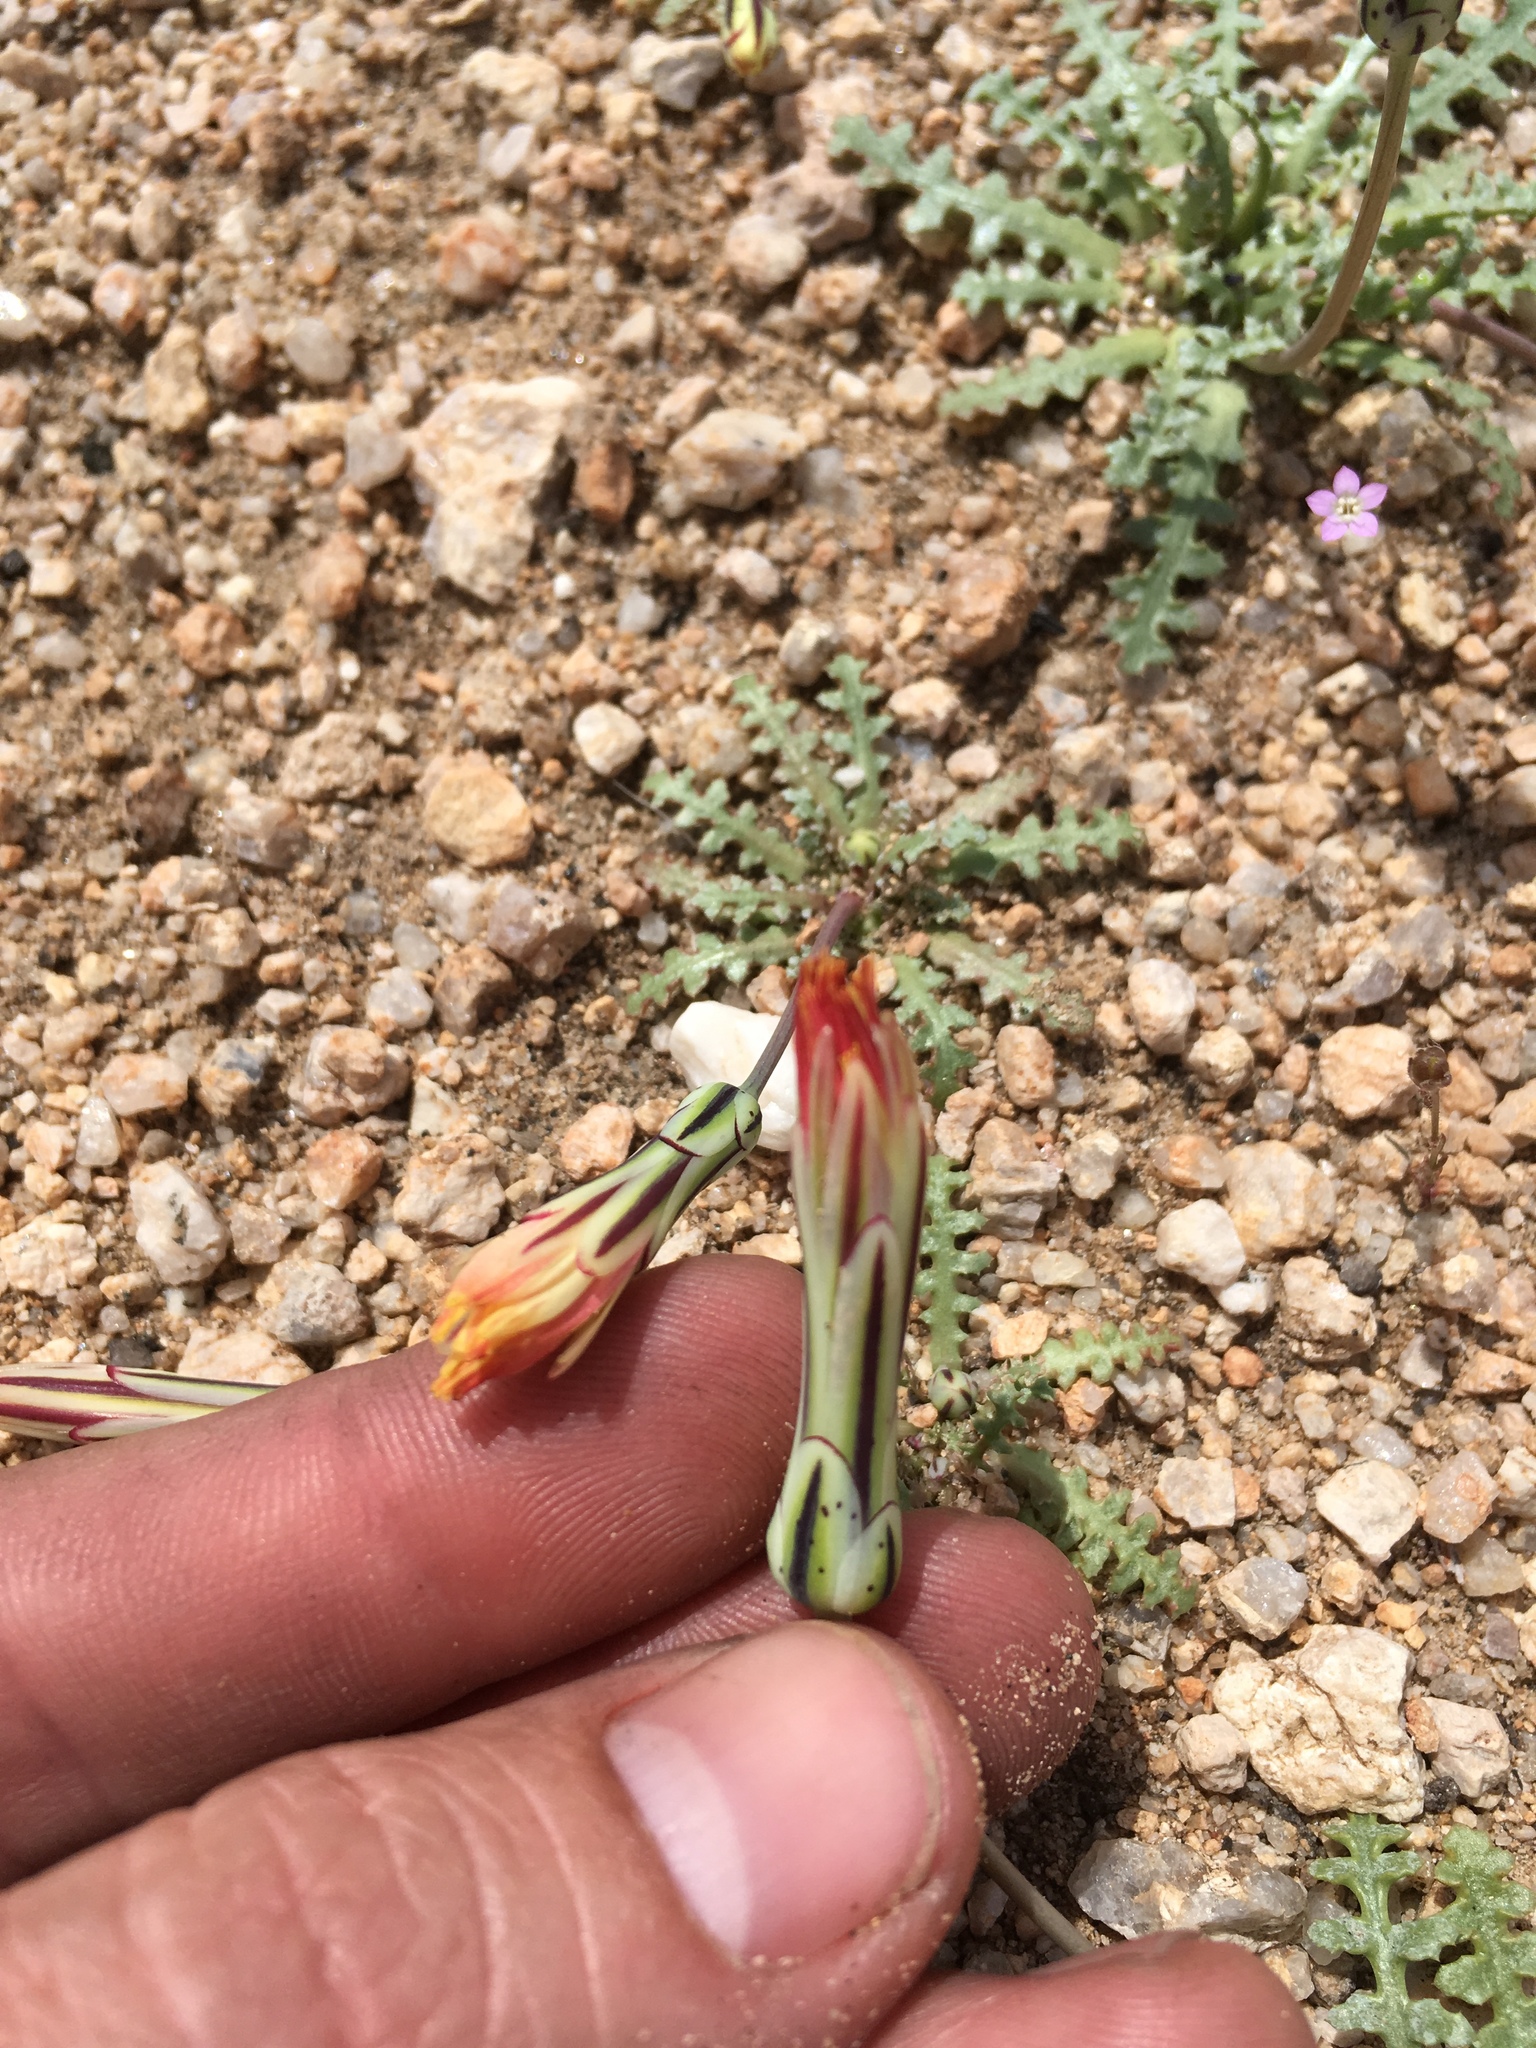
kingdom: Plantae
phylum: Tracheophyta
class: Magnoliopsida
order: Asterales
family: Asteraceae
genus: Anisocoma
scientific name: Anisocoma acaulis
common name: Scalebud
